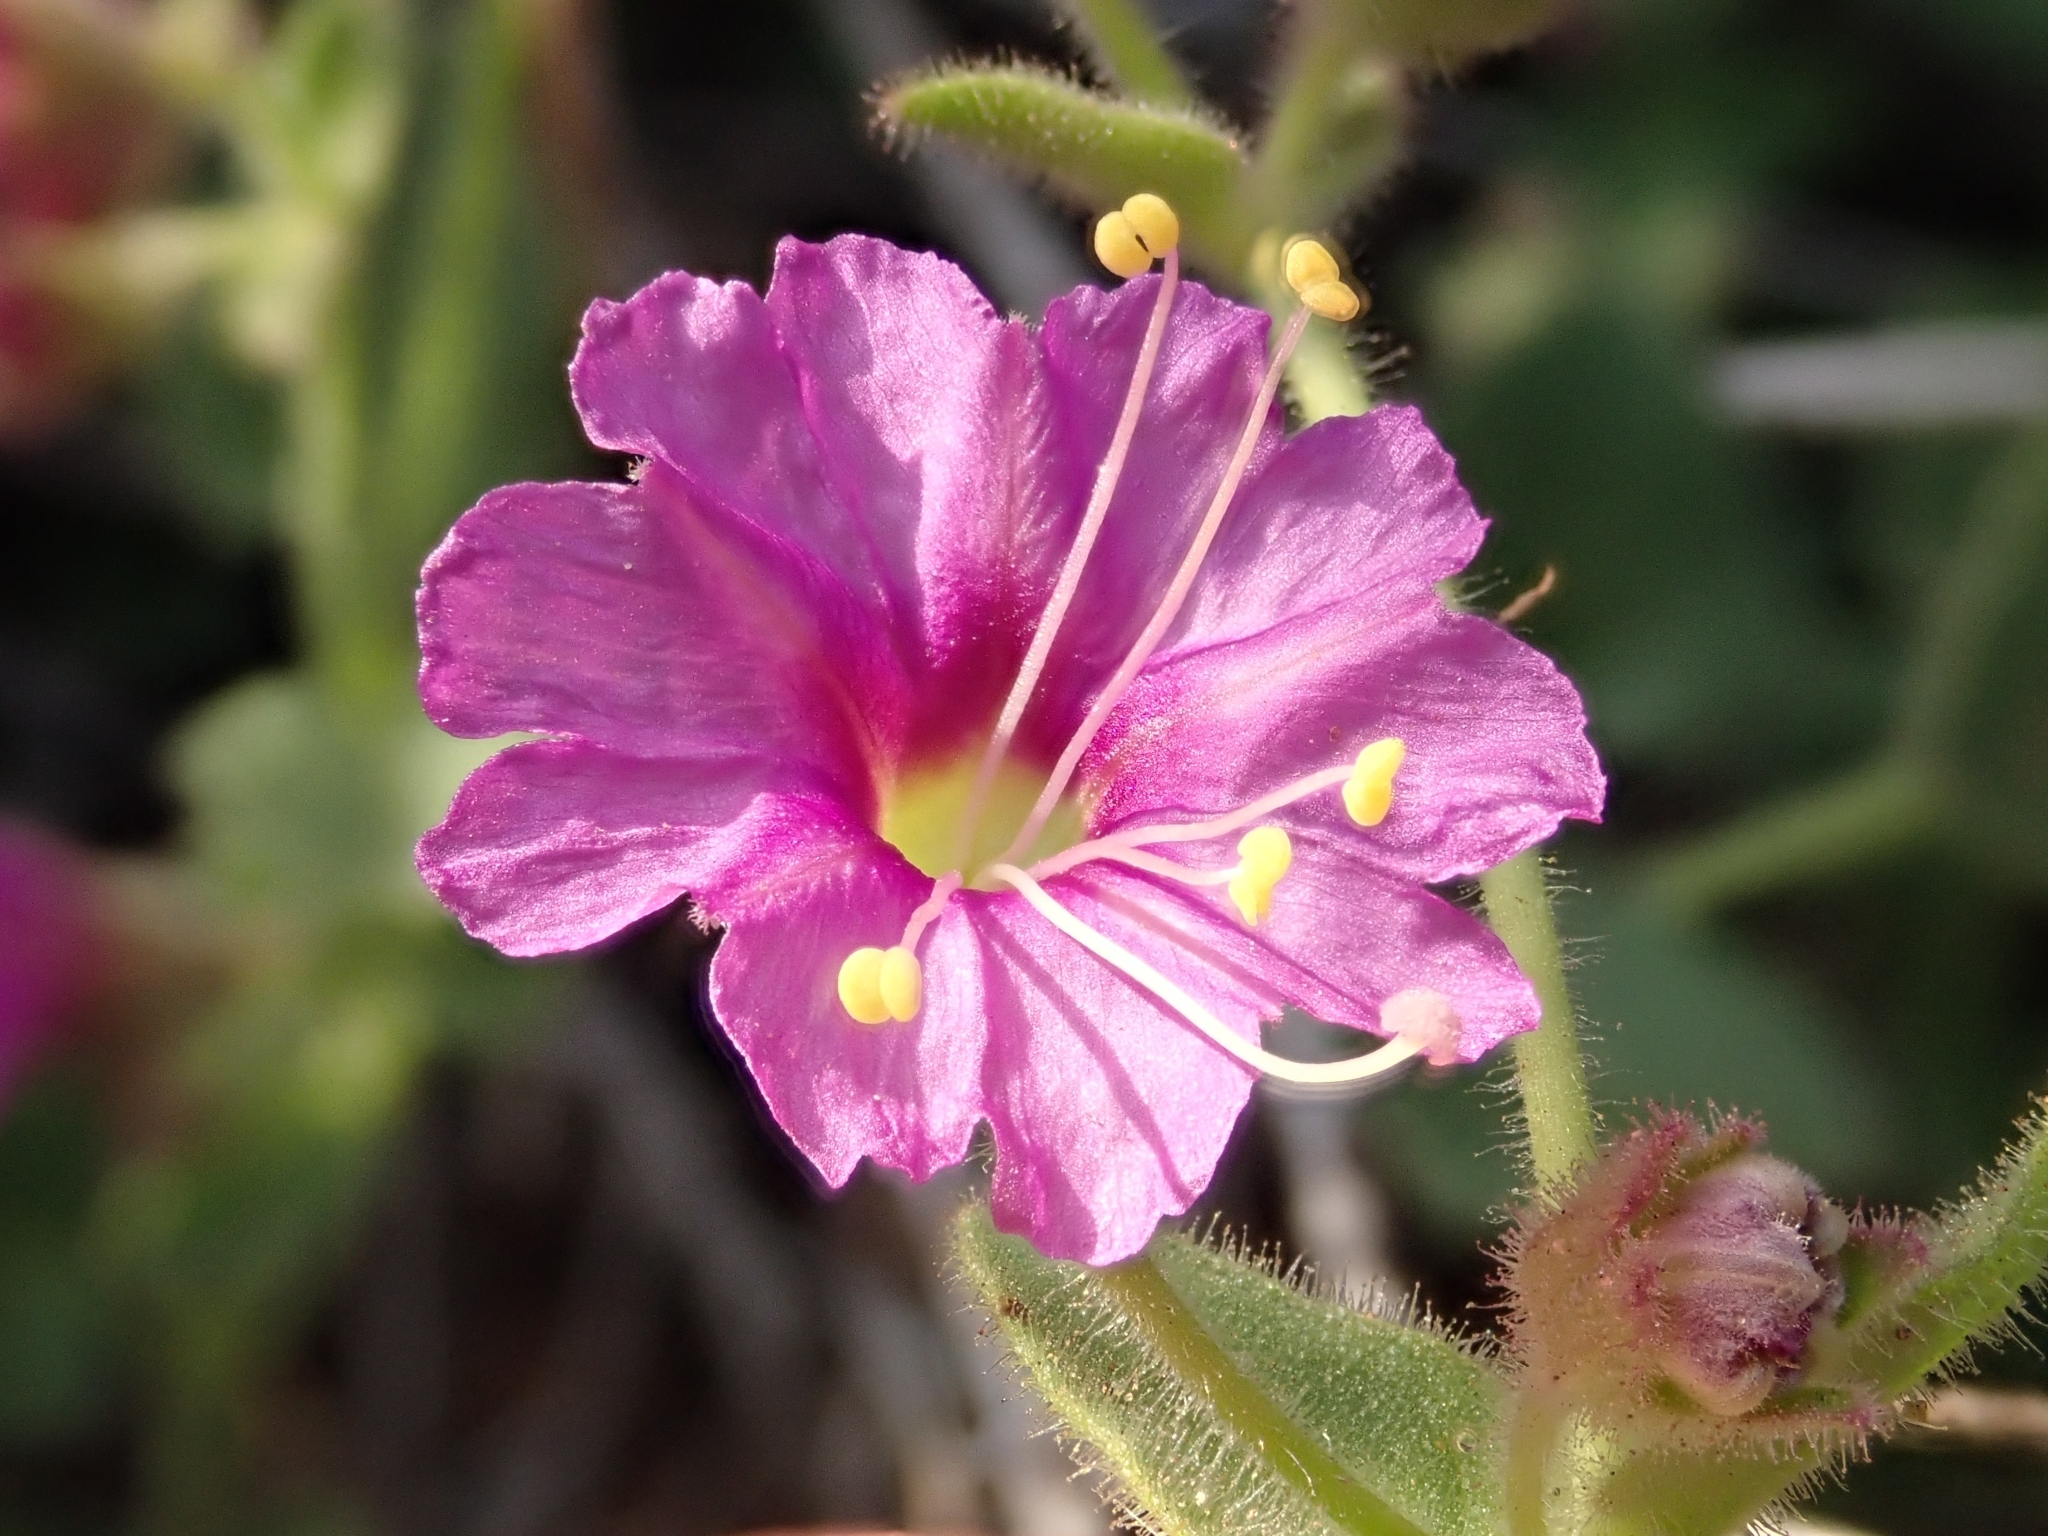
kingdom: Plantae
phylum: Tracheophyta
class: Magnoliopsida
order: Caryophyllales
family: Nyctaginaceae
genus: Mirabilis
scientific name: Mirabilis laevis
